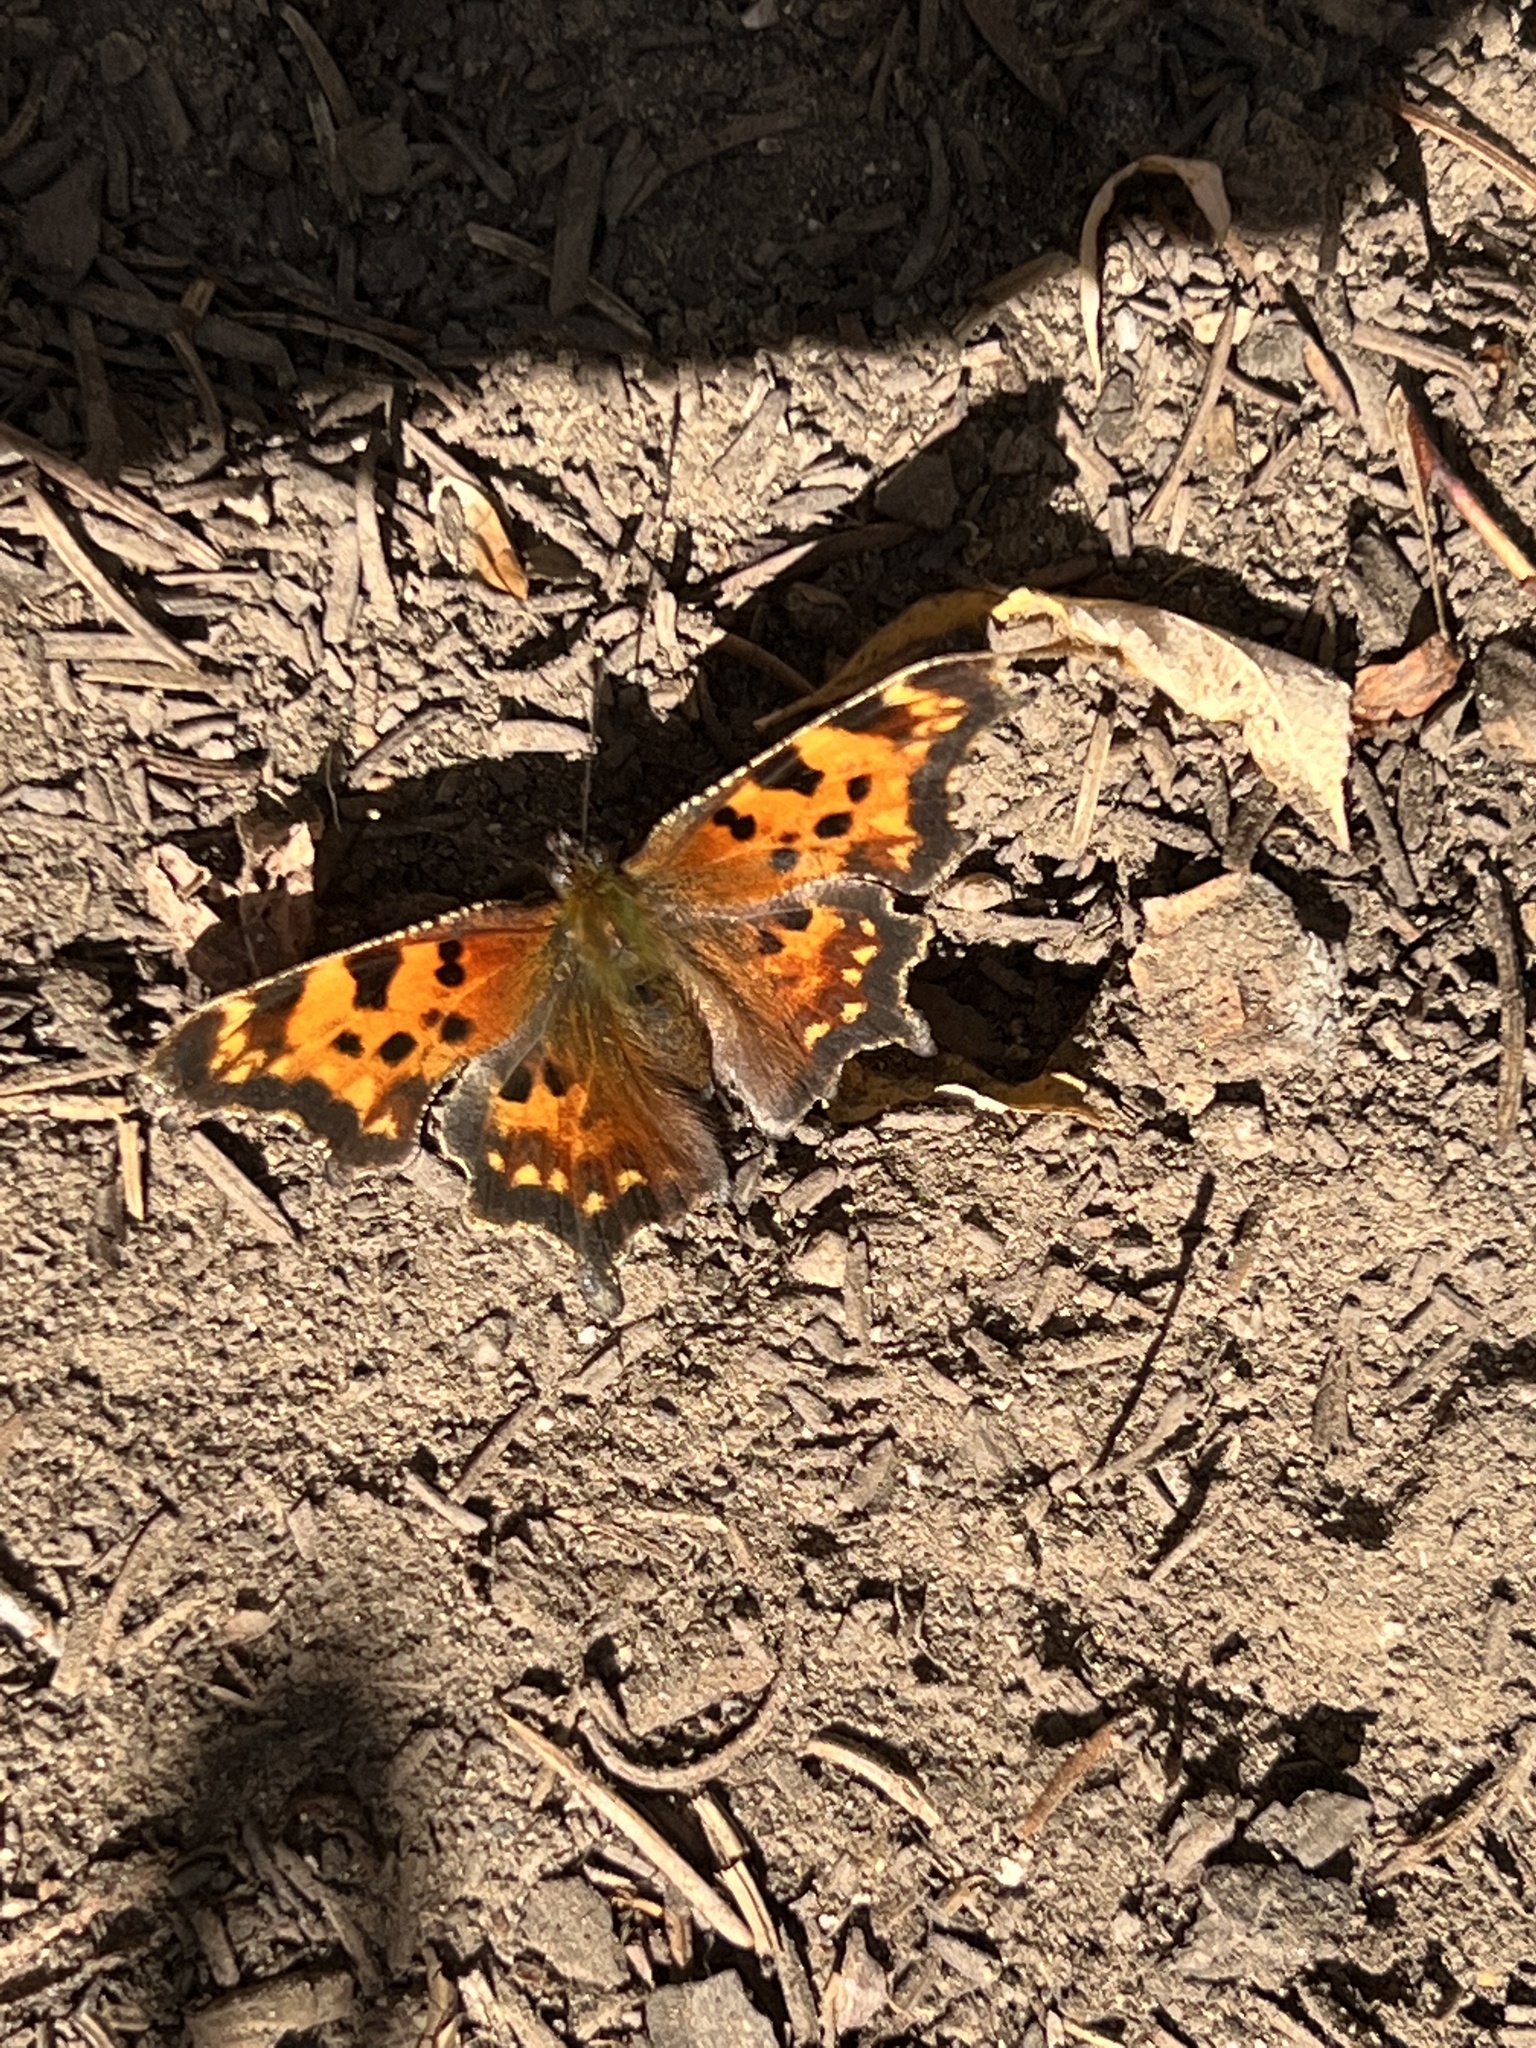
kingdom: Animalia
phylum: Arthropoda
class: Insecta
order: Lepidoptera
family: Nymphalidae
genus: Polygonia
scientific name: Polygonia faunus
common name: Green comma
